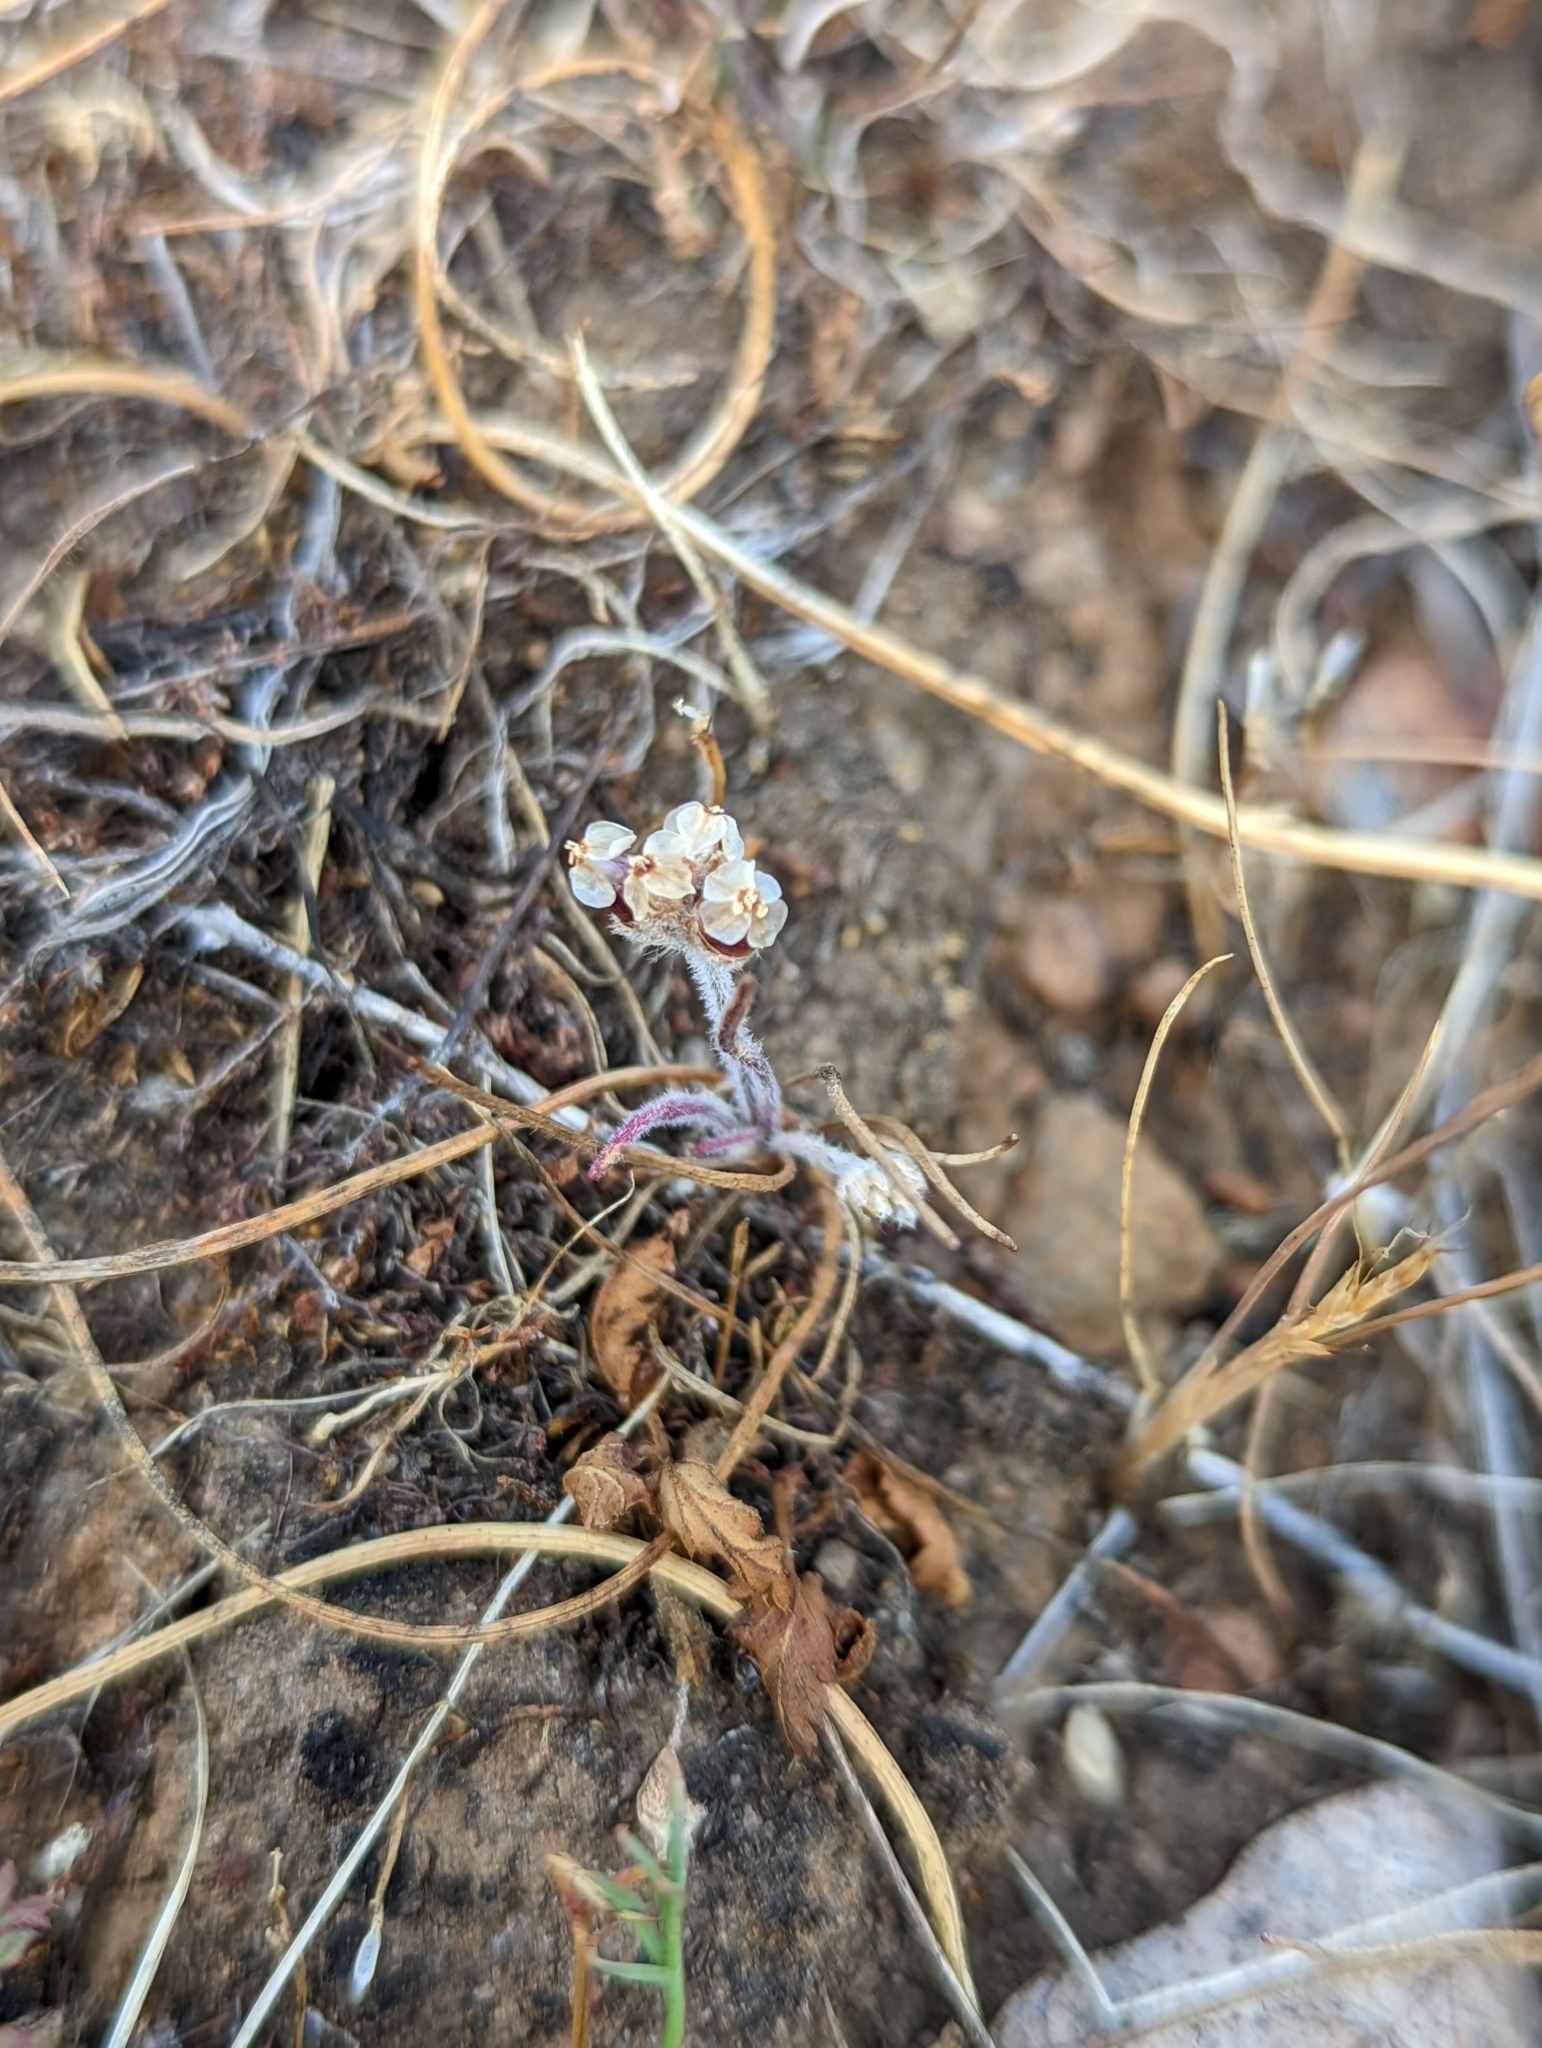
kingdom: Plantae
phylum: Tracheophyta
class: Magnoliopsida
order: Lamiales
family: Plantaginaceae
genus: Plantago
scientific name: Plantago erecta
